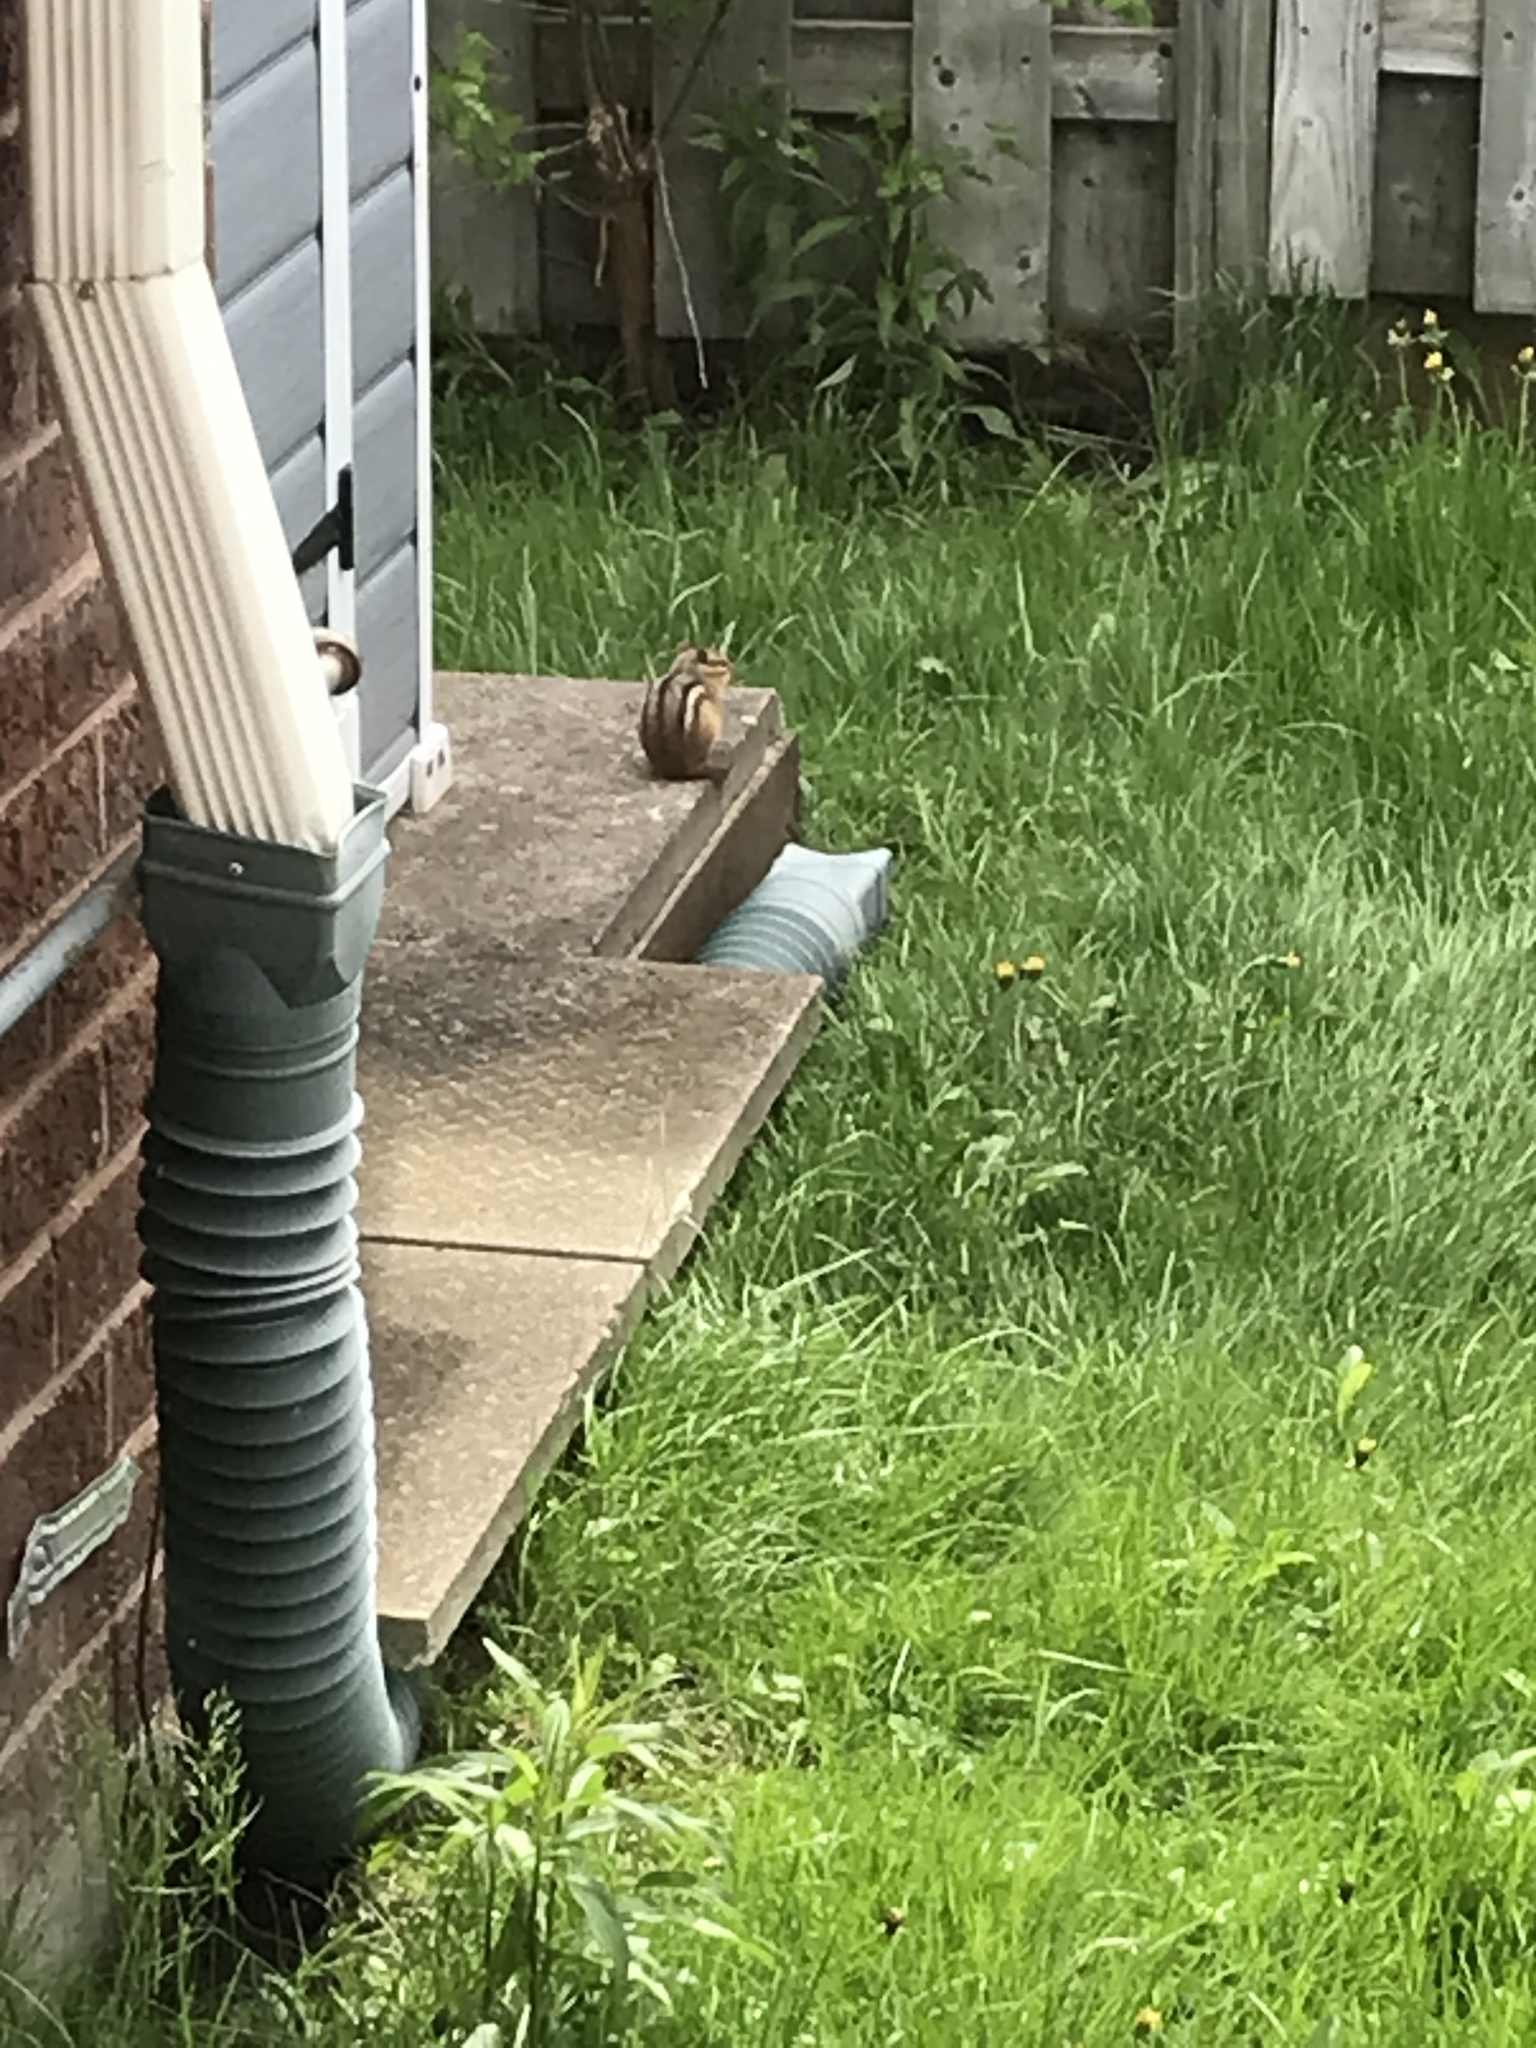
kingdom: Animalia
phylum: Chordata
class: Mammalia
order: Rodentia
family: Sciuridae
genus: Tamias
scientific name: Tamias striatus
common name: Eastern chipmunk
